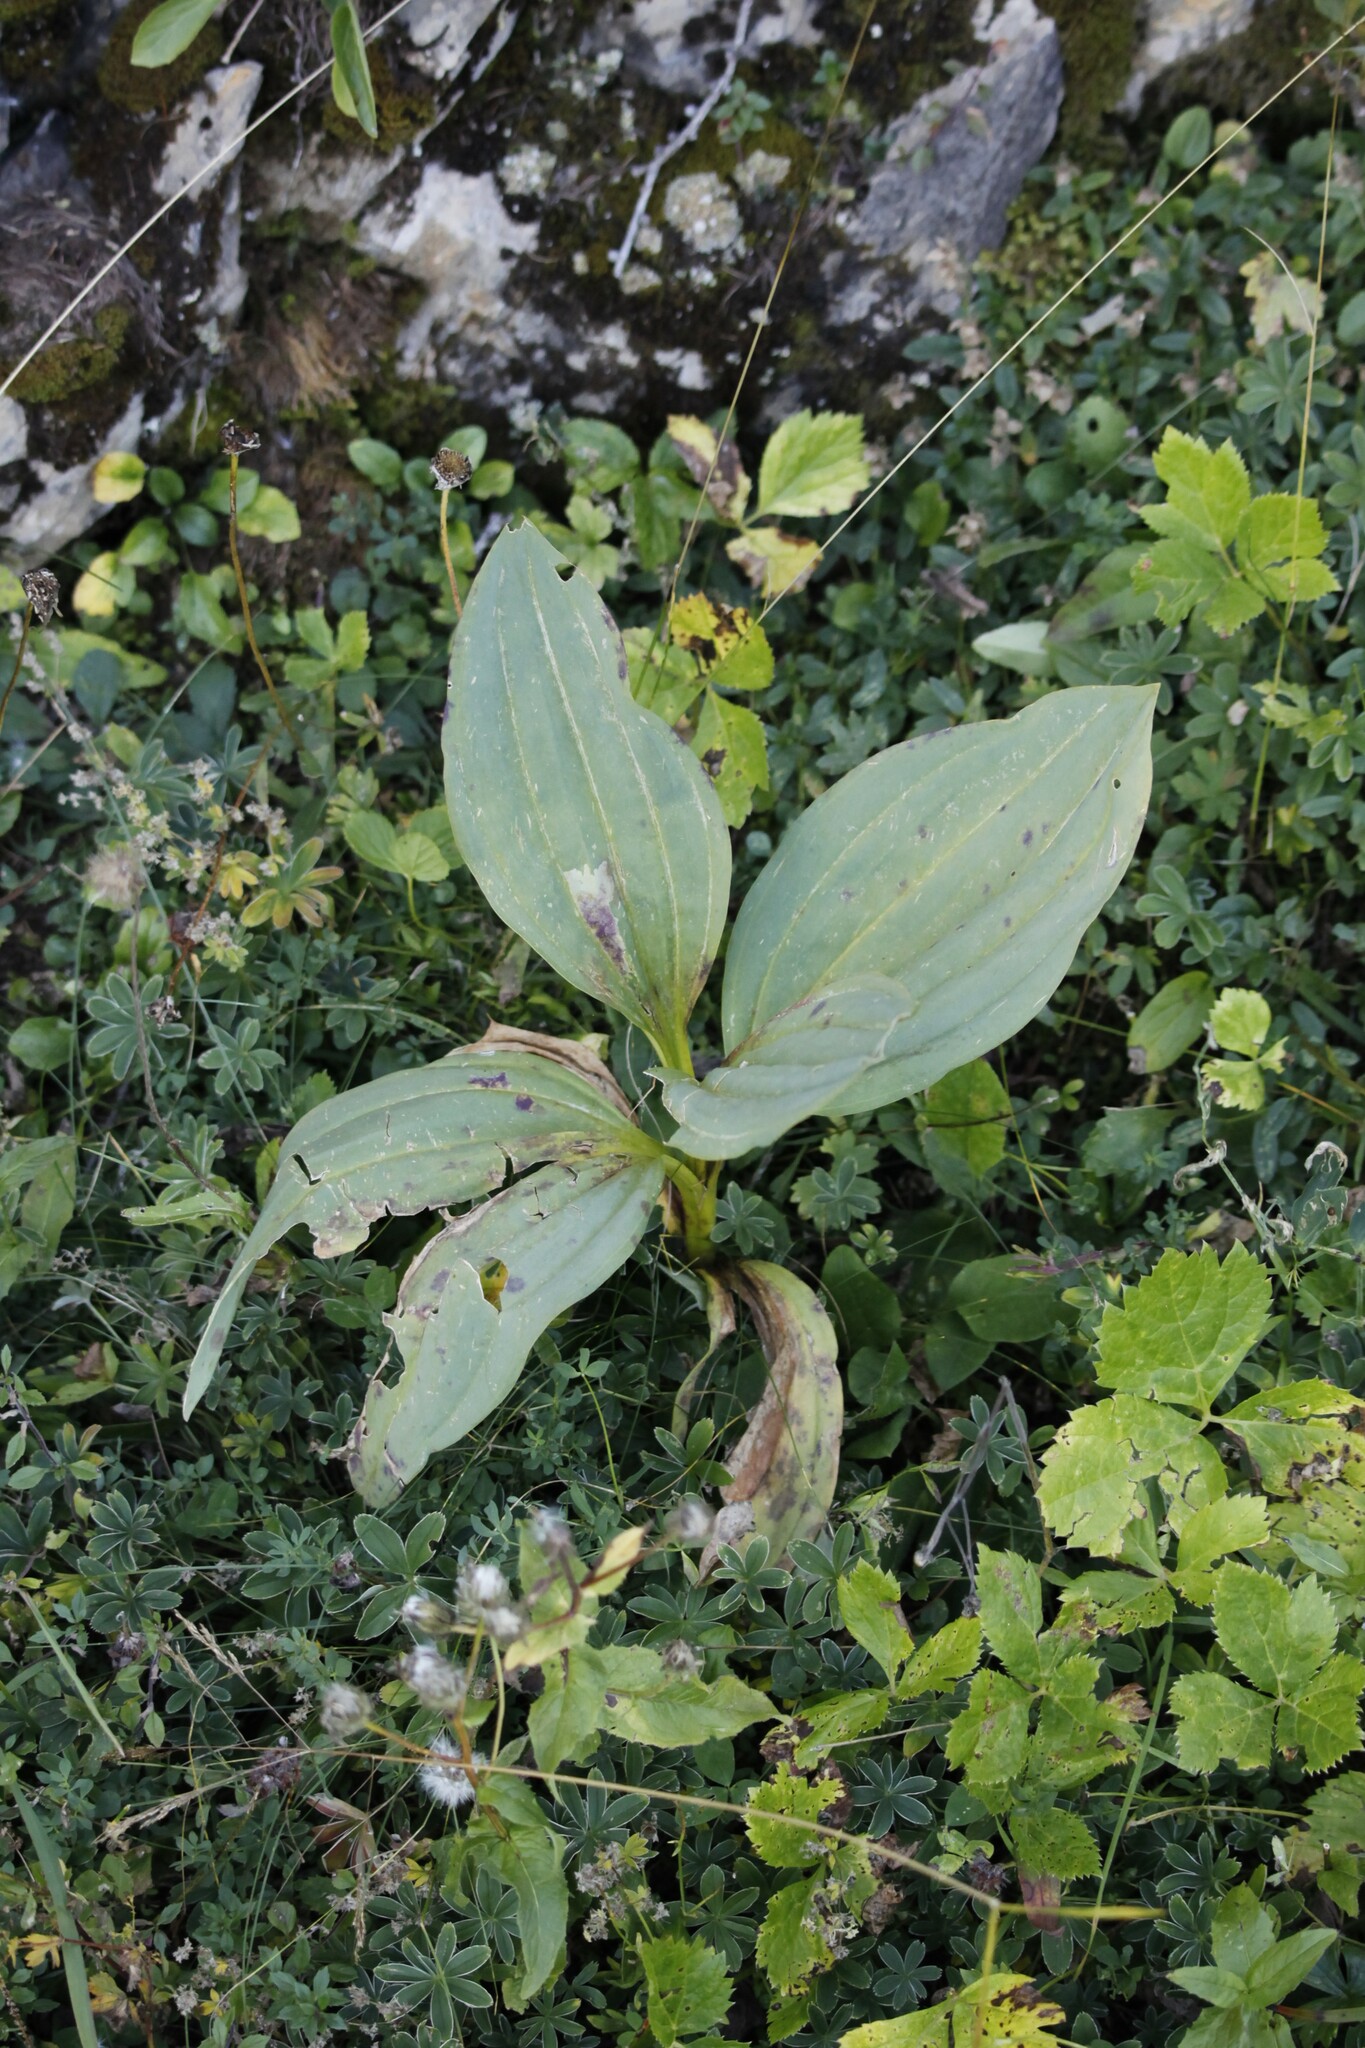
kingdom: Plantae
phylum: Tracheophyta
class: Magnoliopsida
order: Gentianales
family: Gentianaceae
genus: Gentiana
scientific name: Gentiana lutea
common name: Great yellow gentian
